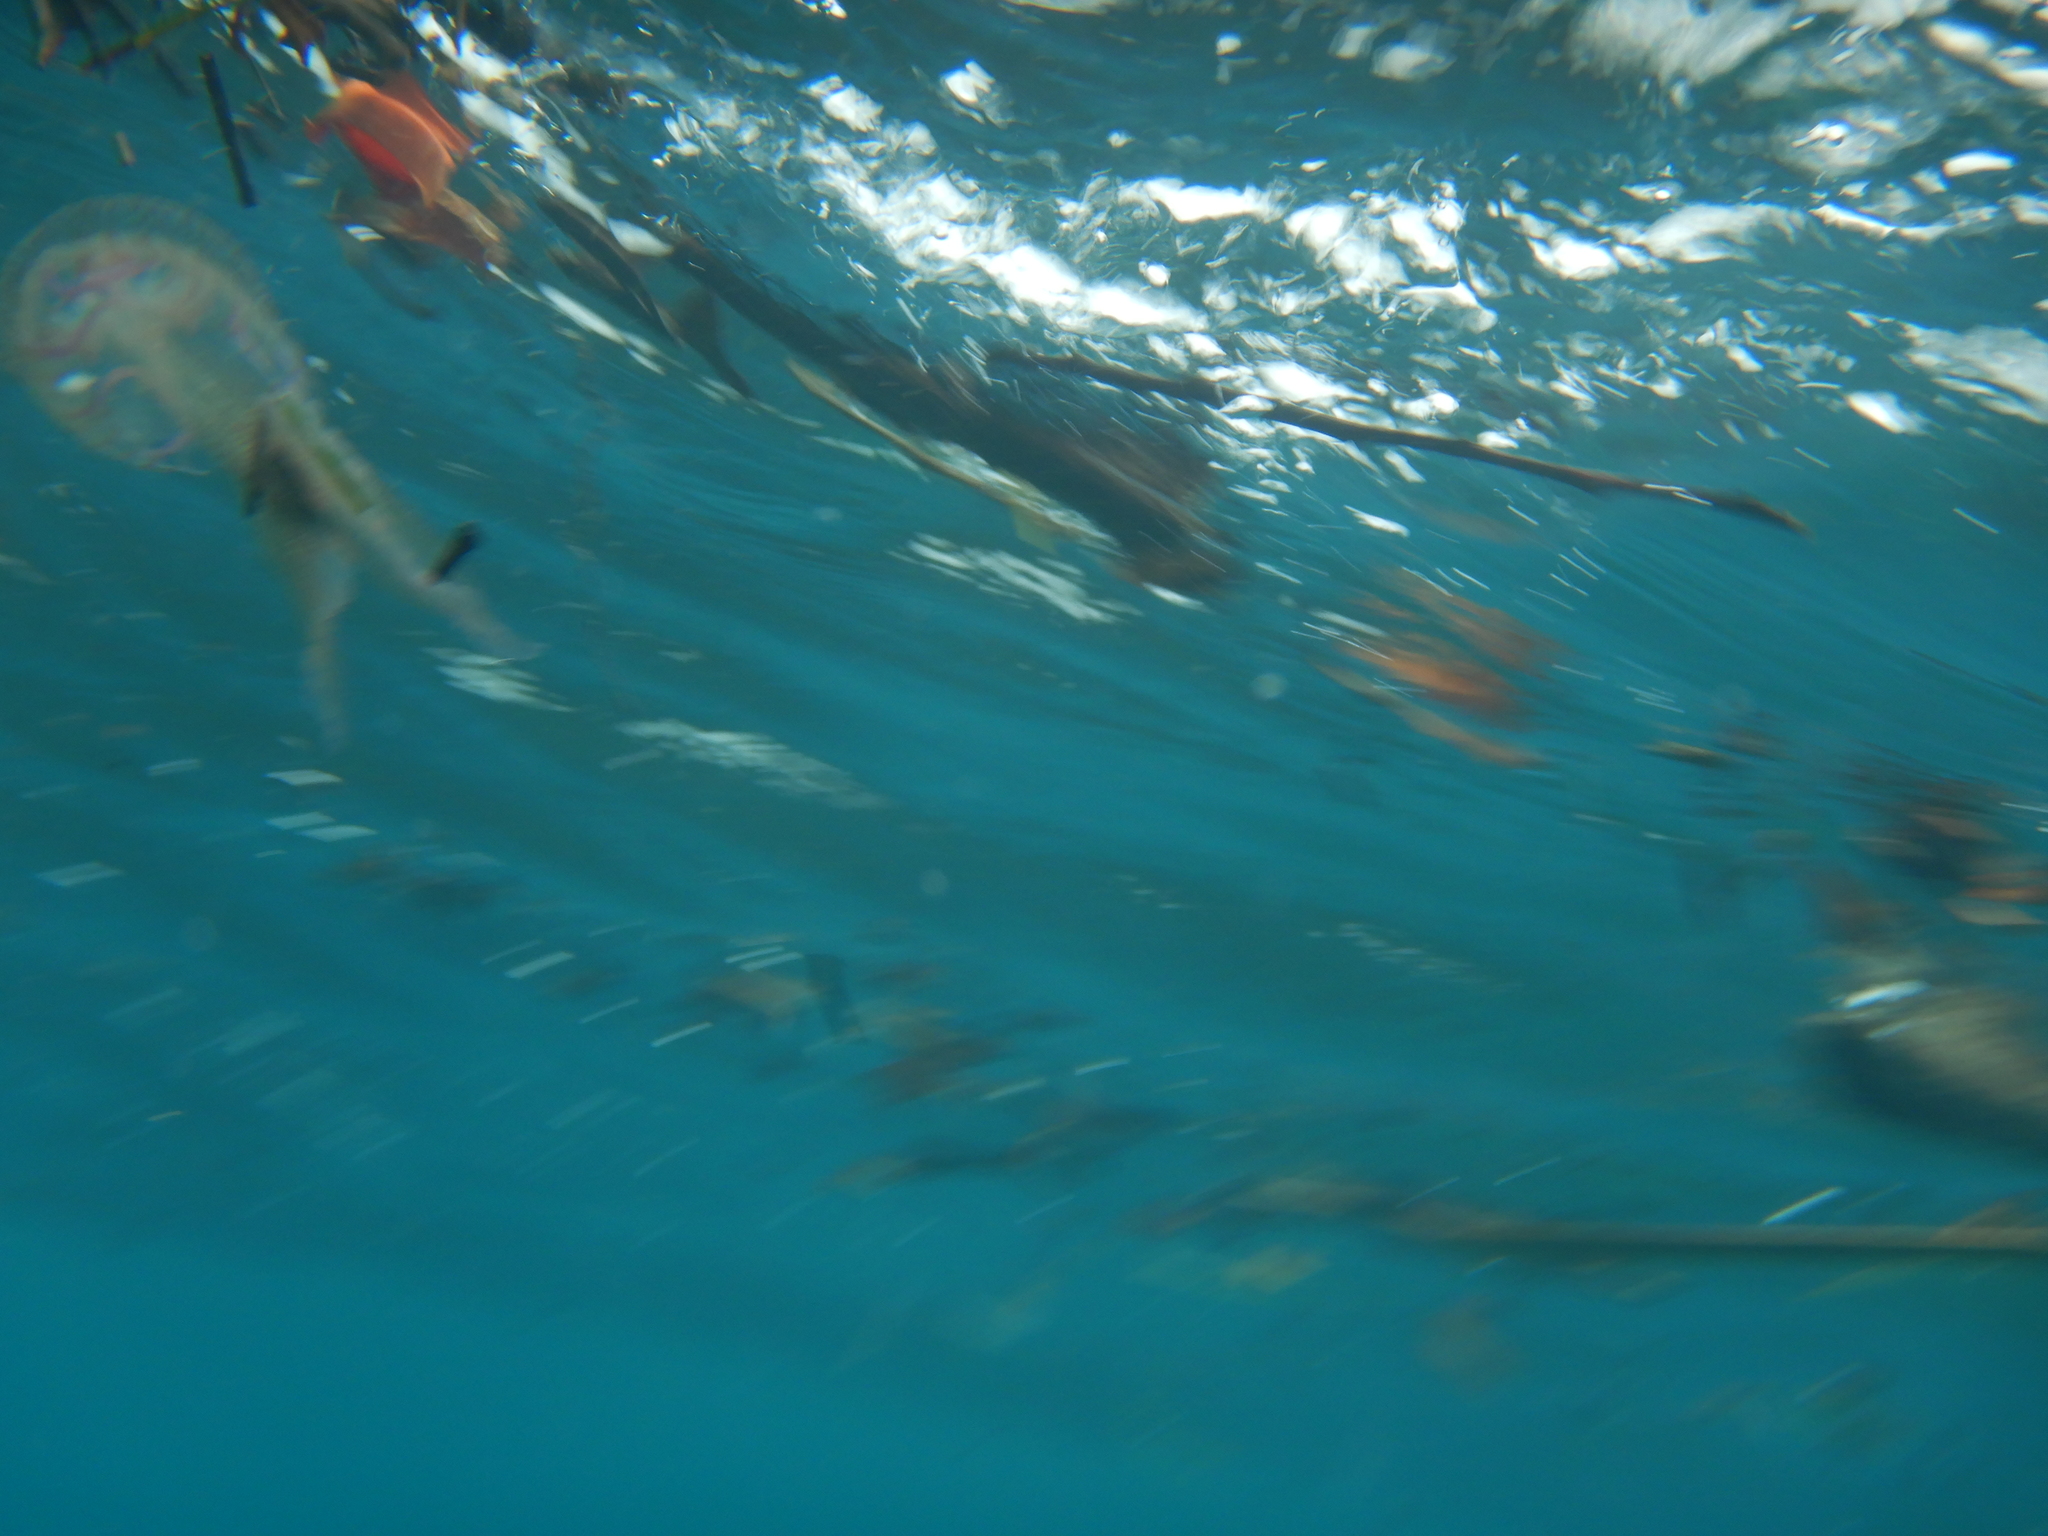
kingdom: Animalia
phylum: Cnidaria
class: Scyphozoa
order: Semaeostomeae
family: Pelagiidae
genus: Pelagia
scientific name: Pelagia noctiluca
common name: Mauve stinger
